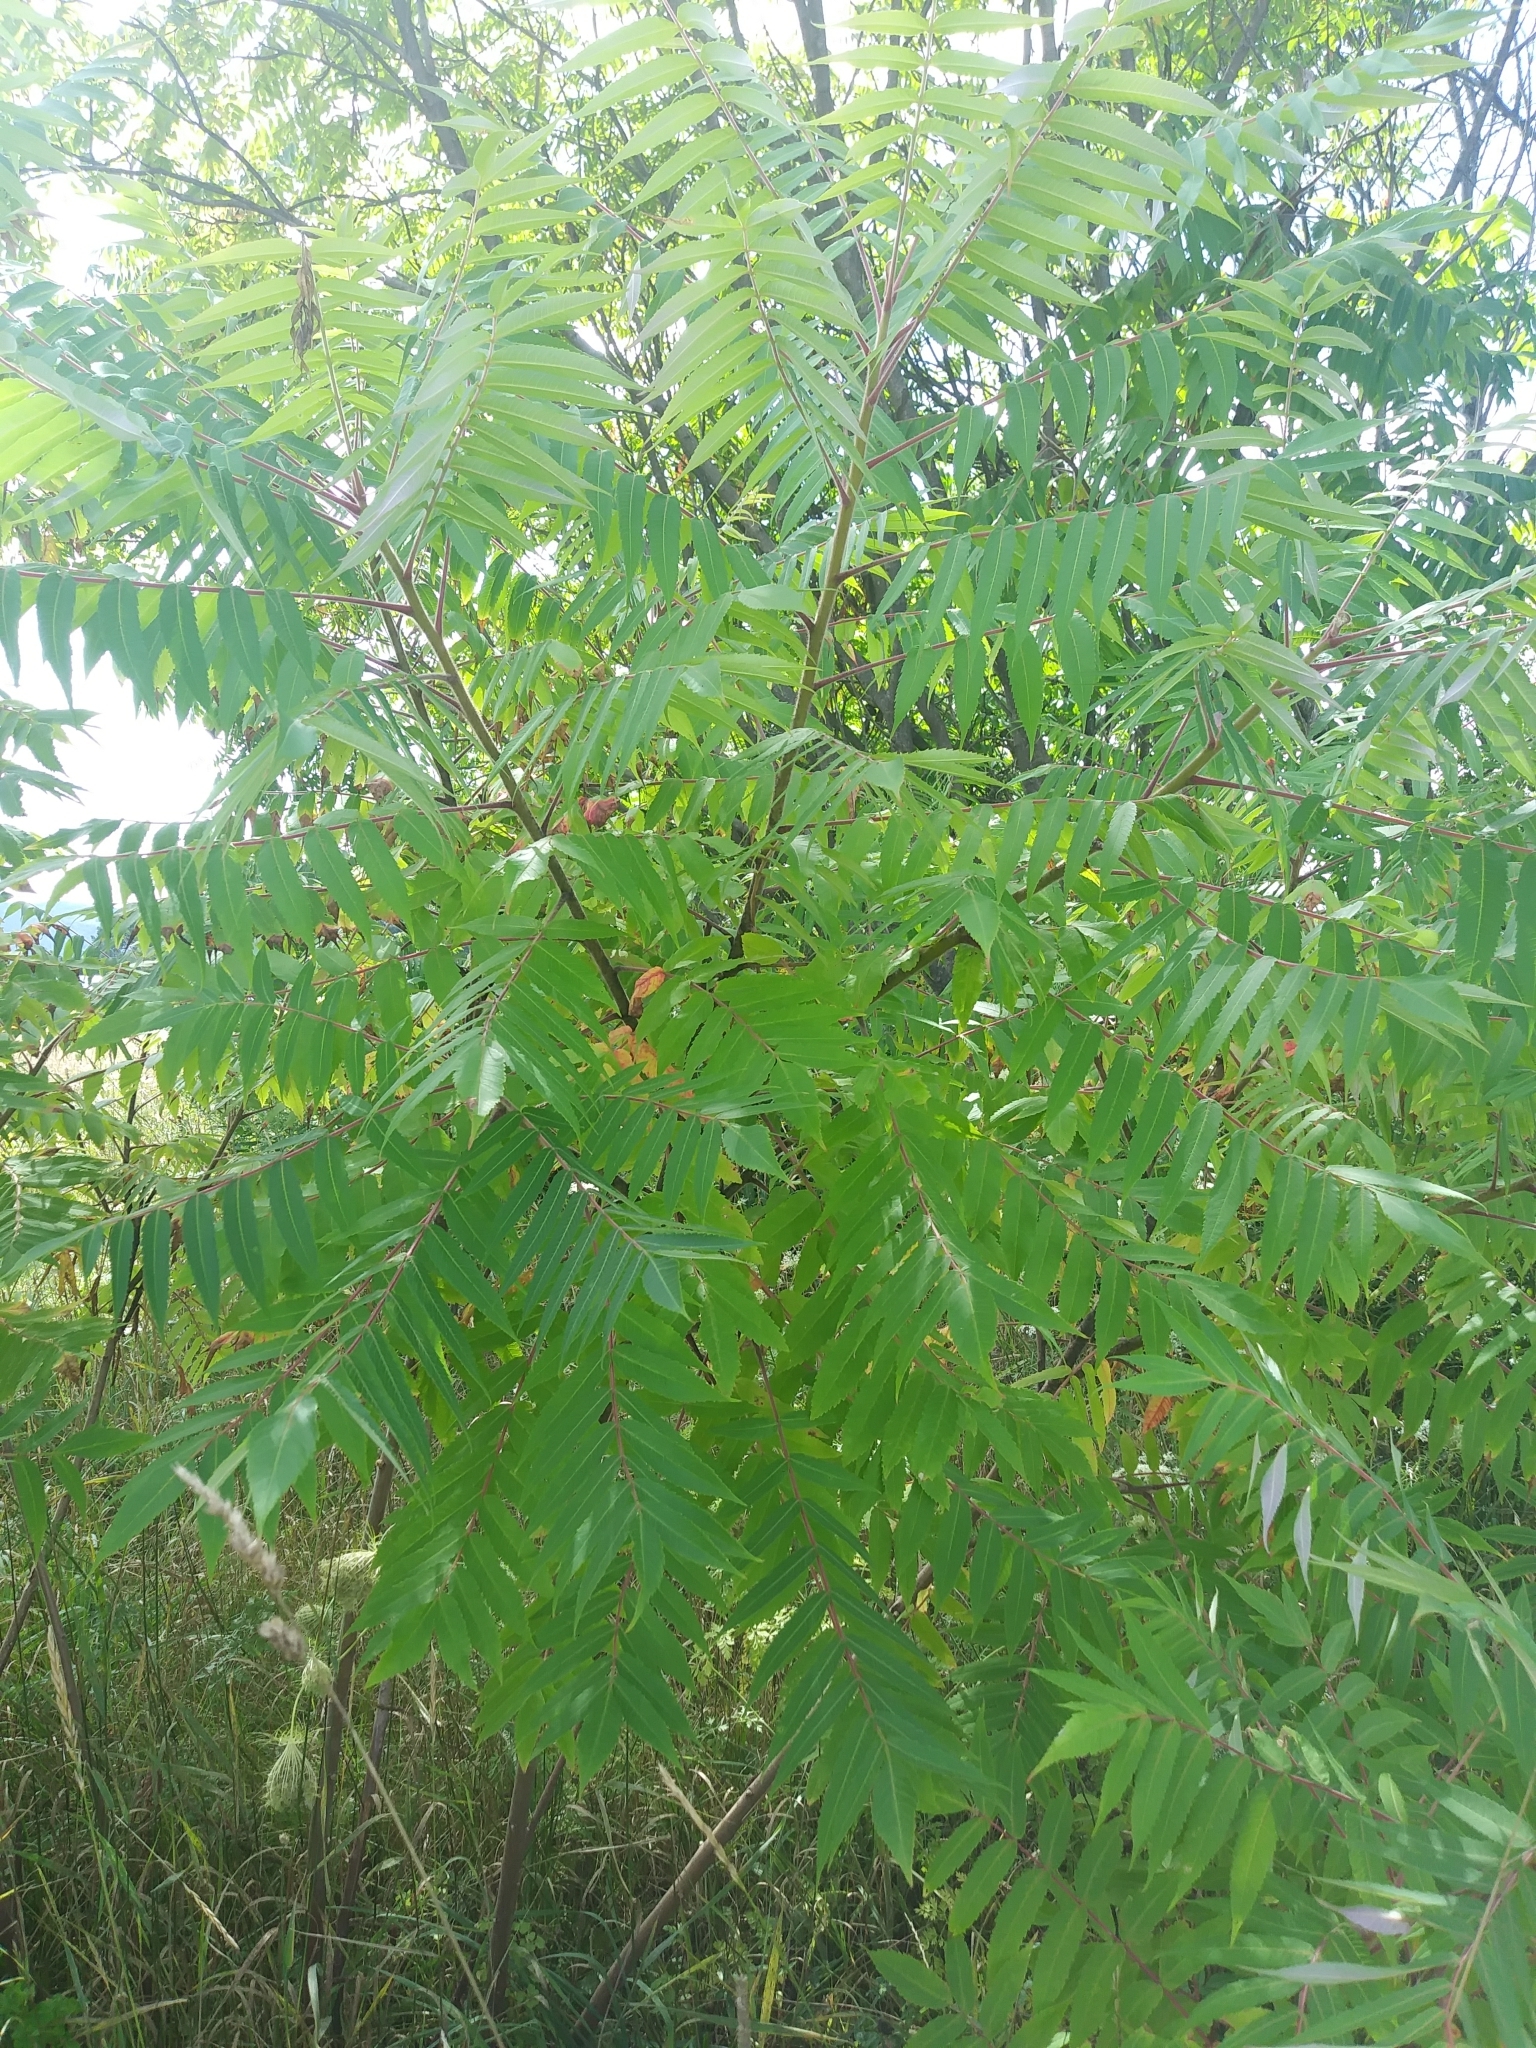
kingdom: Plantae
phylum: Tracheophyta
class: Magnoliopsida
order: Sapindales
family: Anacardiaceae
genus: Rhus
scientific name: Rhus typhina
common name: Staghorn sumac
